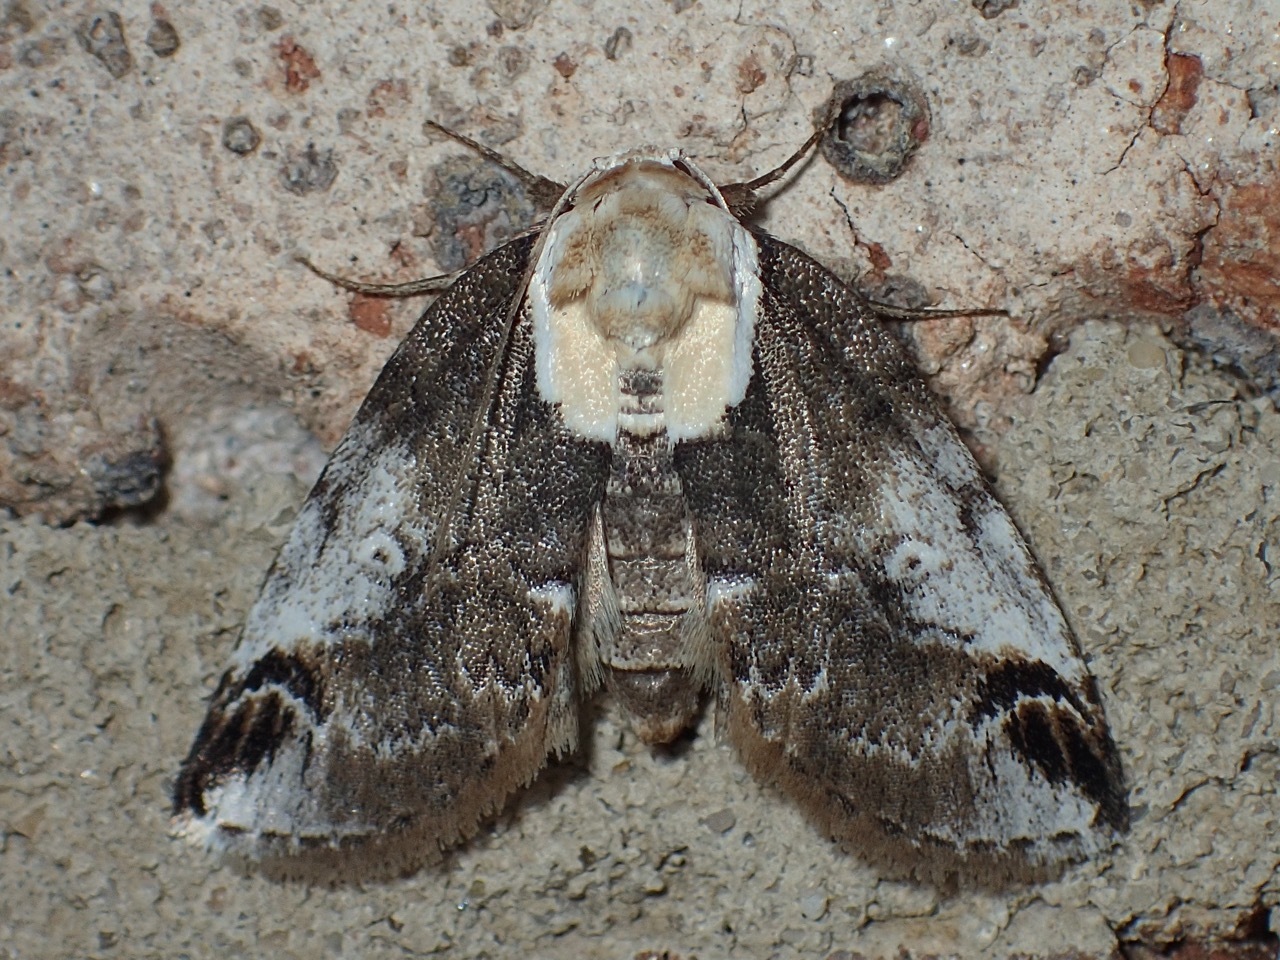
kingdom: Animalia
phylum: Arthropoda
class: Insecta
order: Lepidoptera
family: Nolidae
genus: Baileya
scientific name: Baileya ophthalmica
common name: Eyed baileya moth
